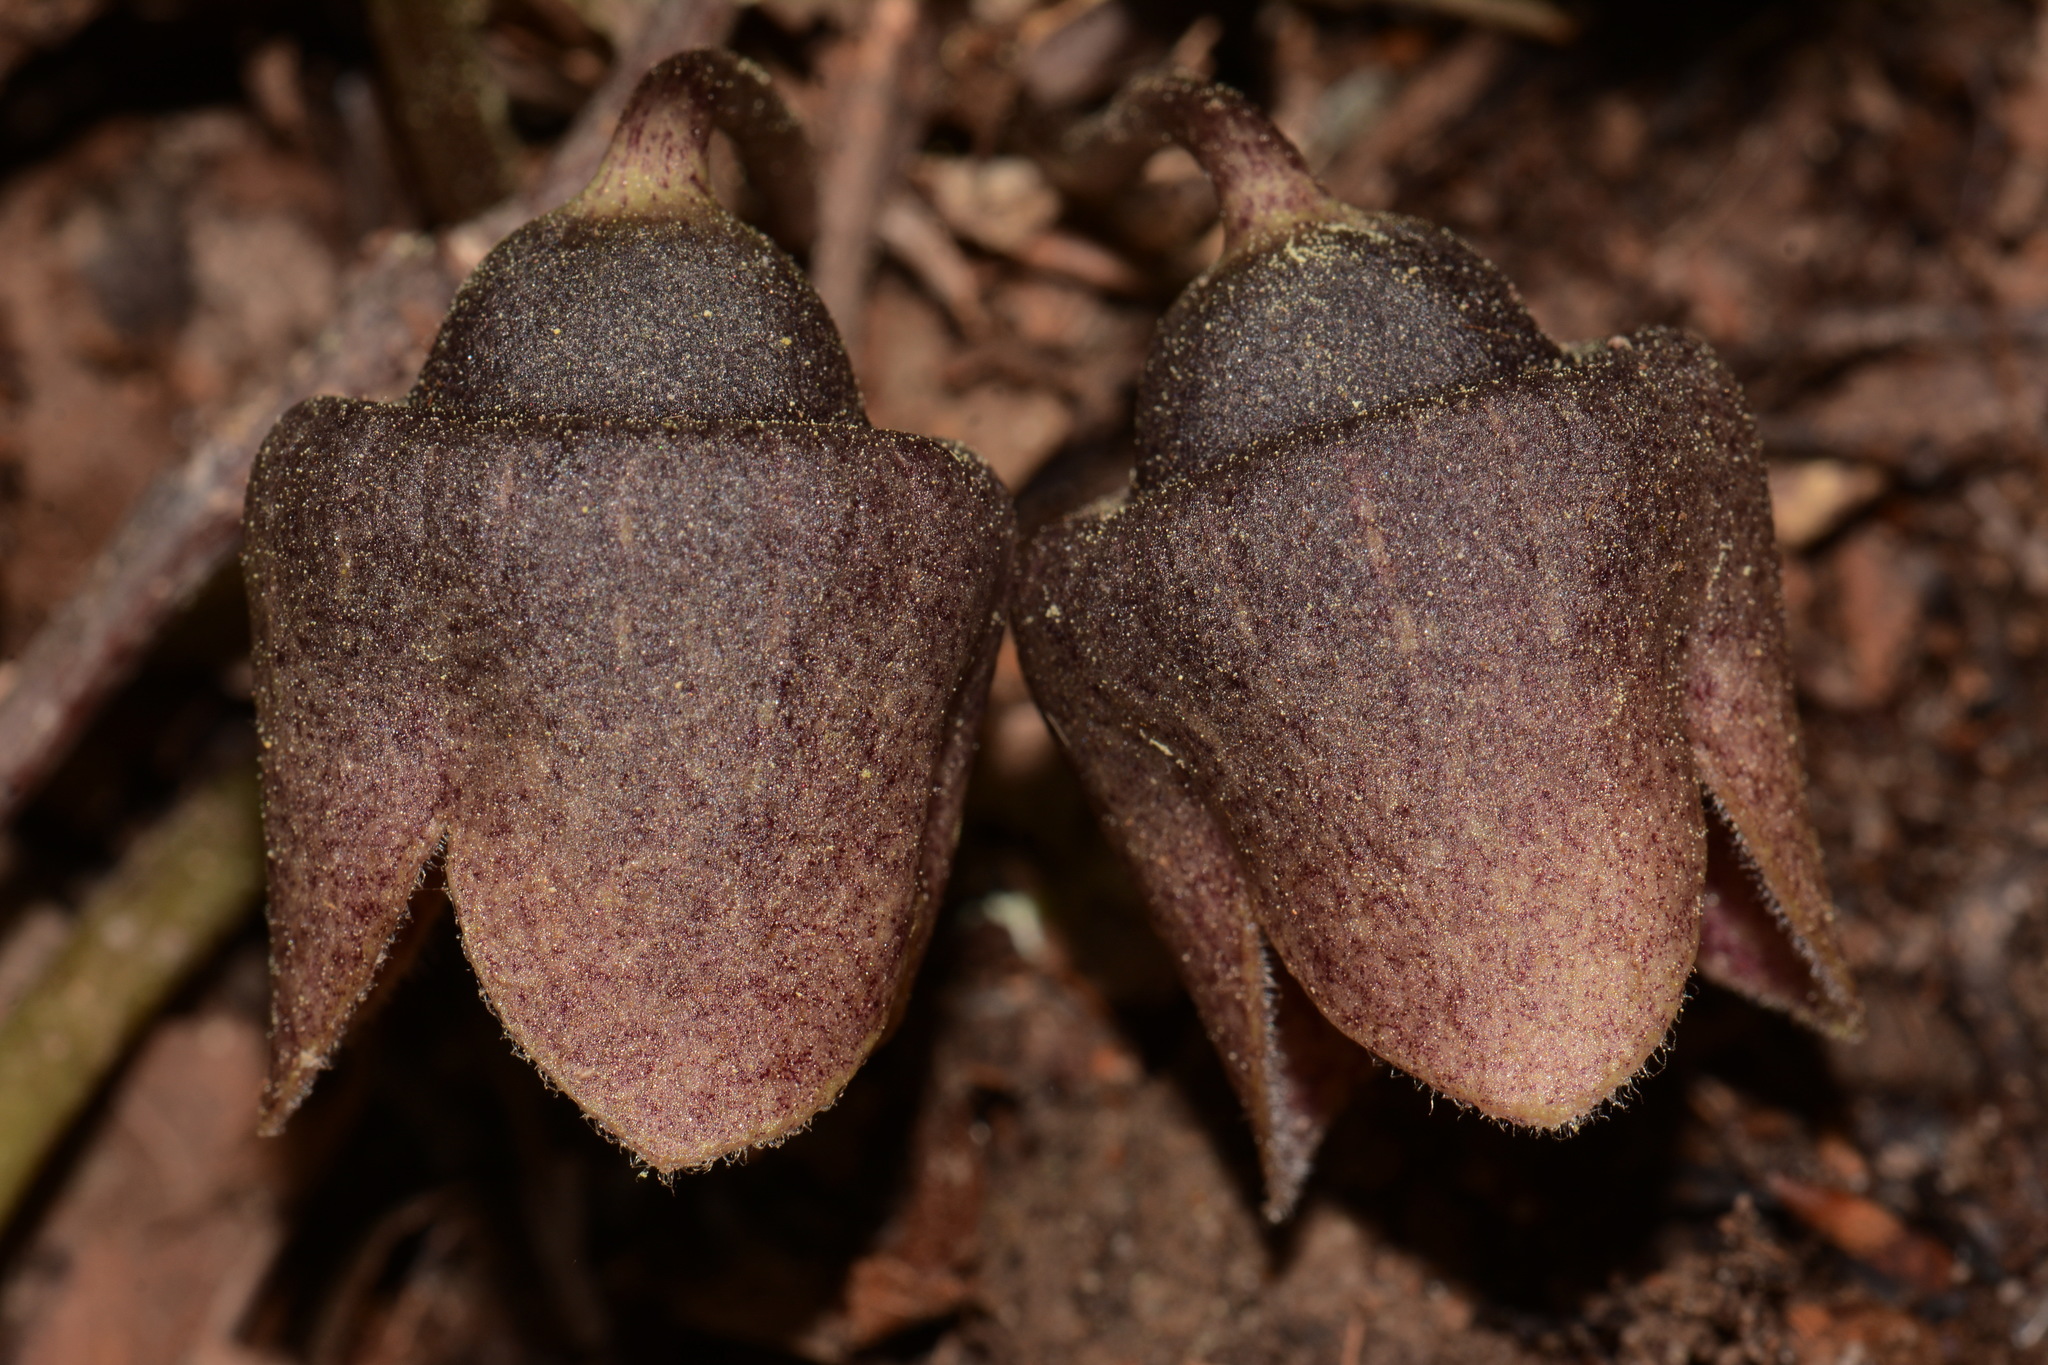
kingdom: Plantae
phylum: Tracheophyta
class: Magnoliopsida
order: Piperales
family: Aristolochiaceae
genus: Hexastylis
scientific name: Hexastylis finzelii
